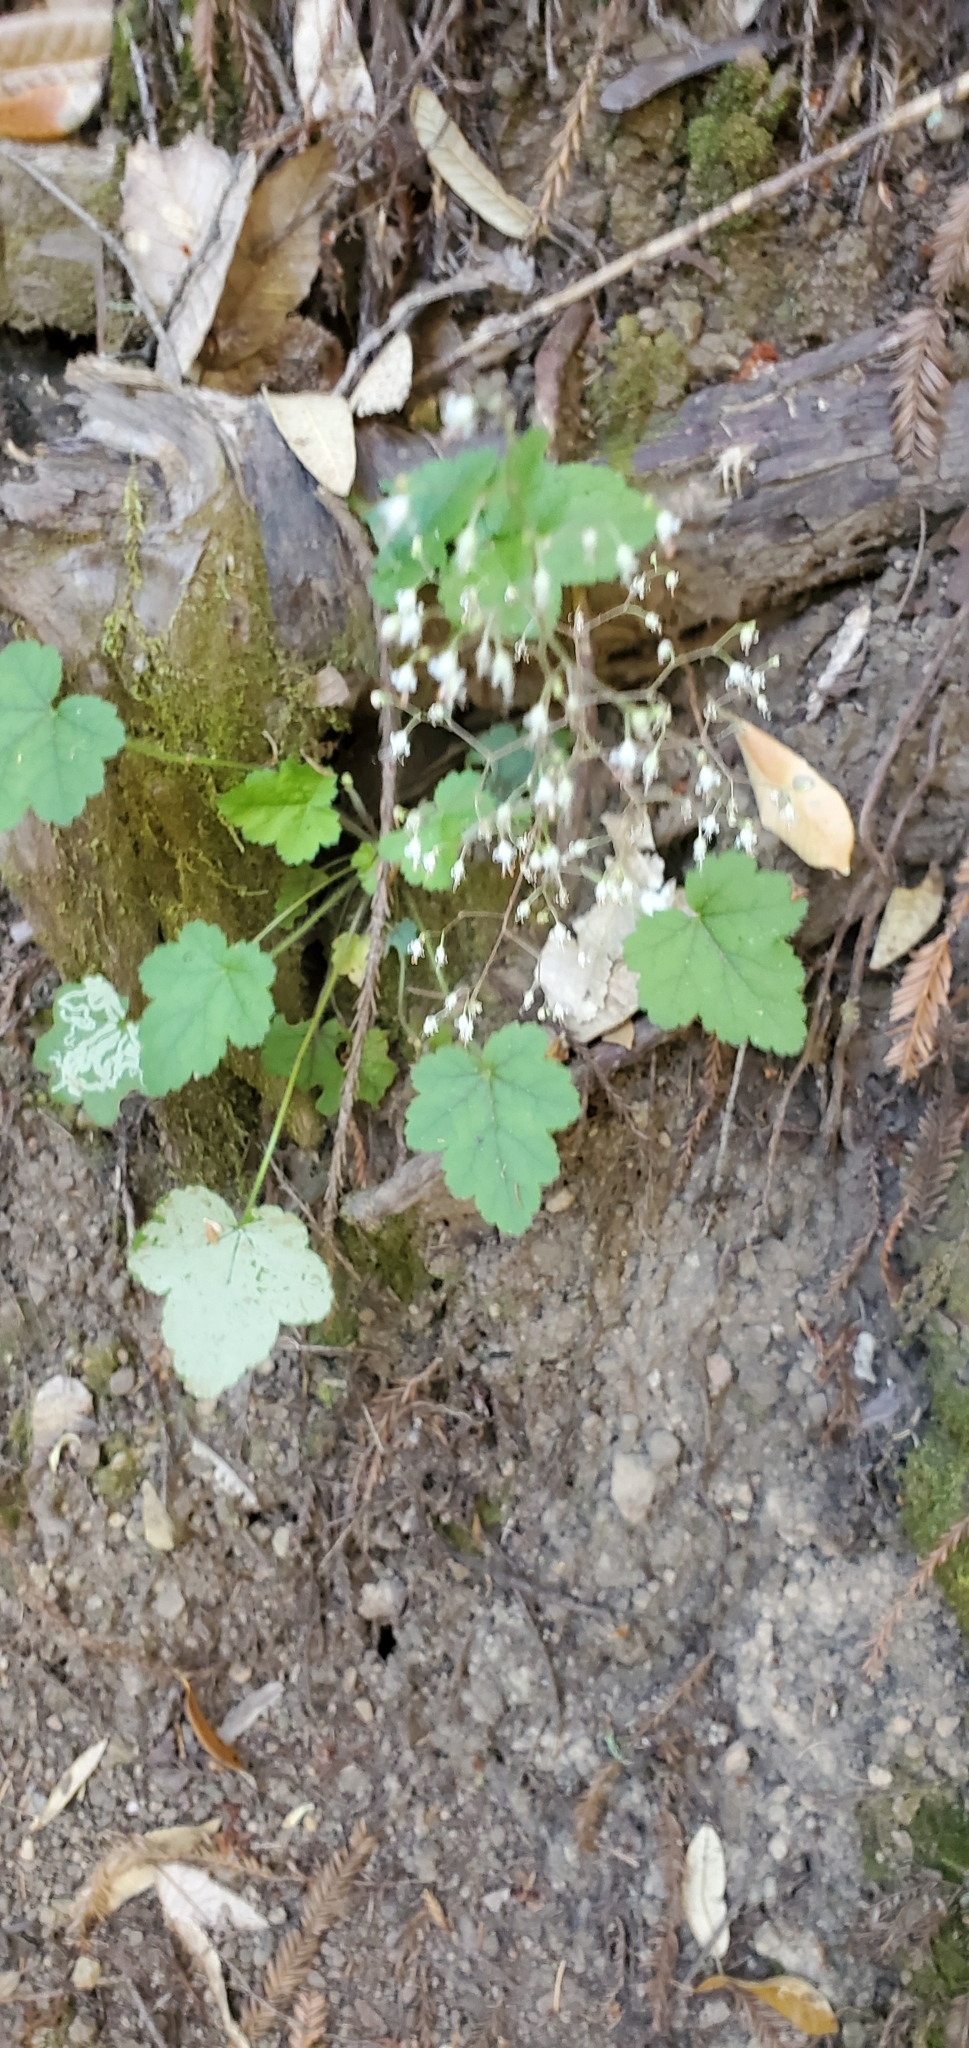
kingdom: Plantae
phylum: Tracheophyta
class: Magnoliopsida
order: Saxifragales
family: Saxifragaceae
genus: Tiarella
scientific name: Tiarella trifoliata
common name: Sugar-scoop
